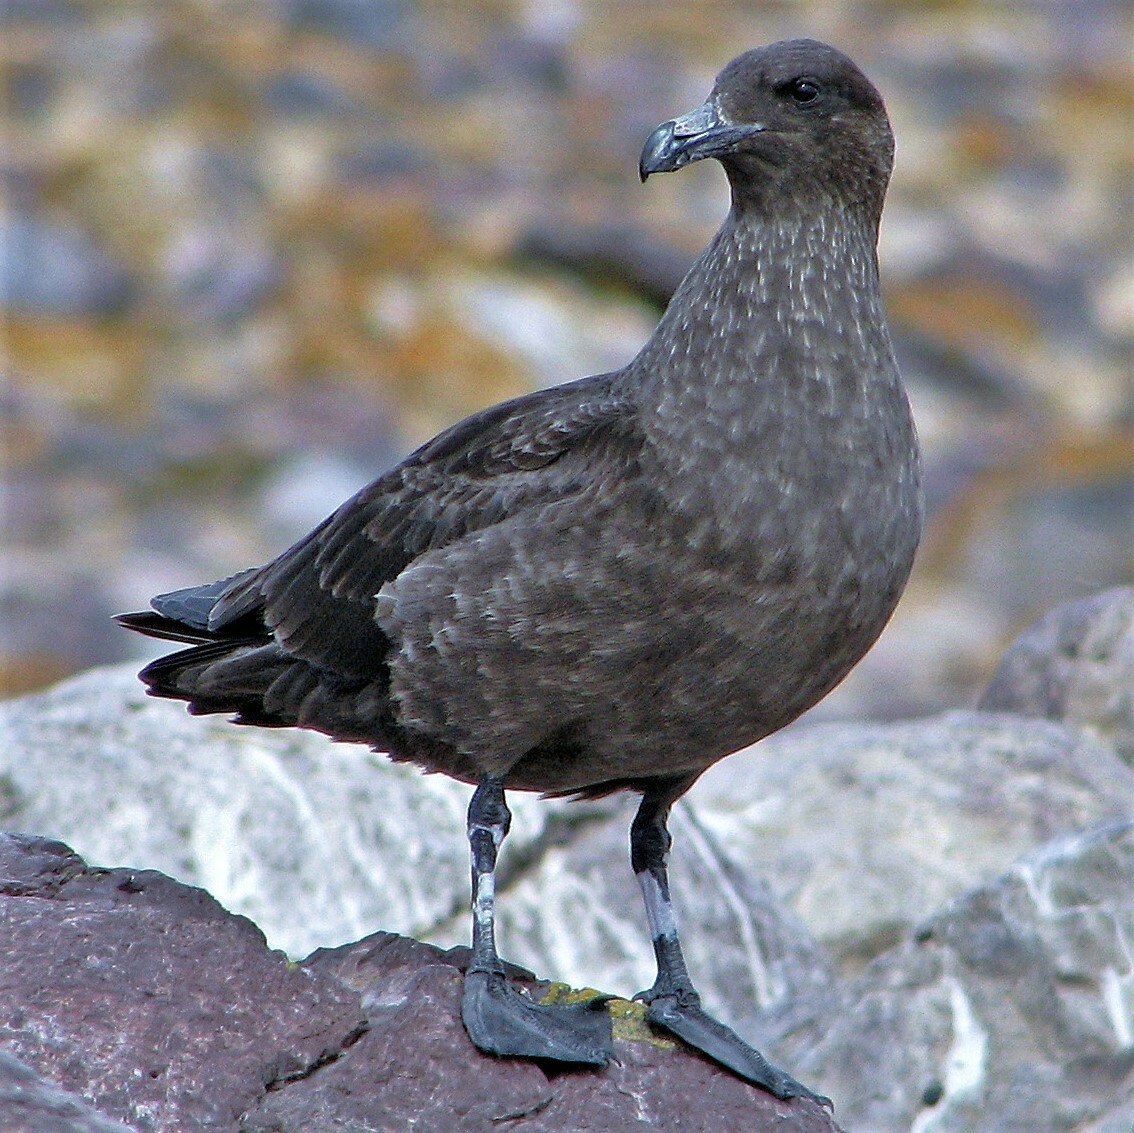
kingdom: Animalia
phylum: Chordata
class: Aves
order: Charadriiformes
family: Stercorariidae
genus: Stercorarius
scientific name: Stercorarius antarcticus
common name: Brown skua
